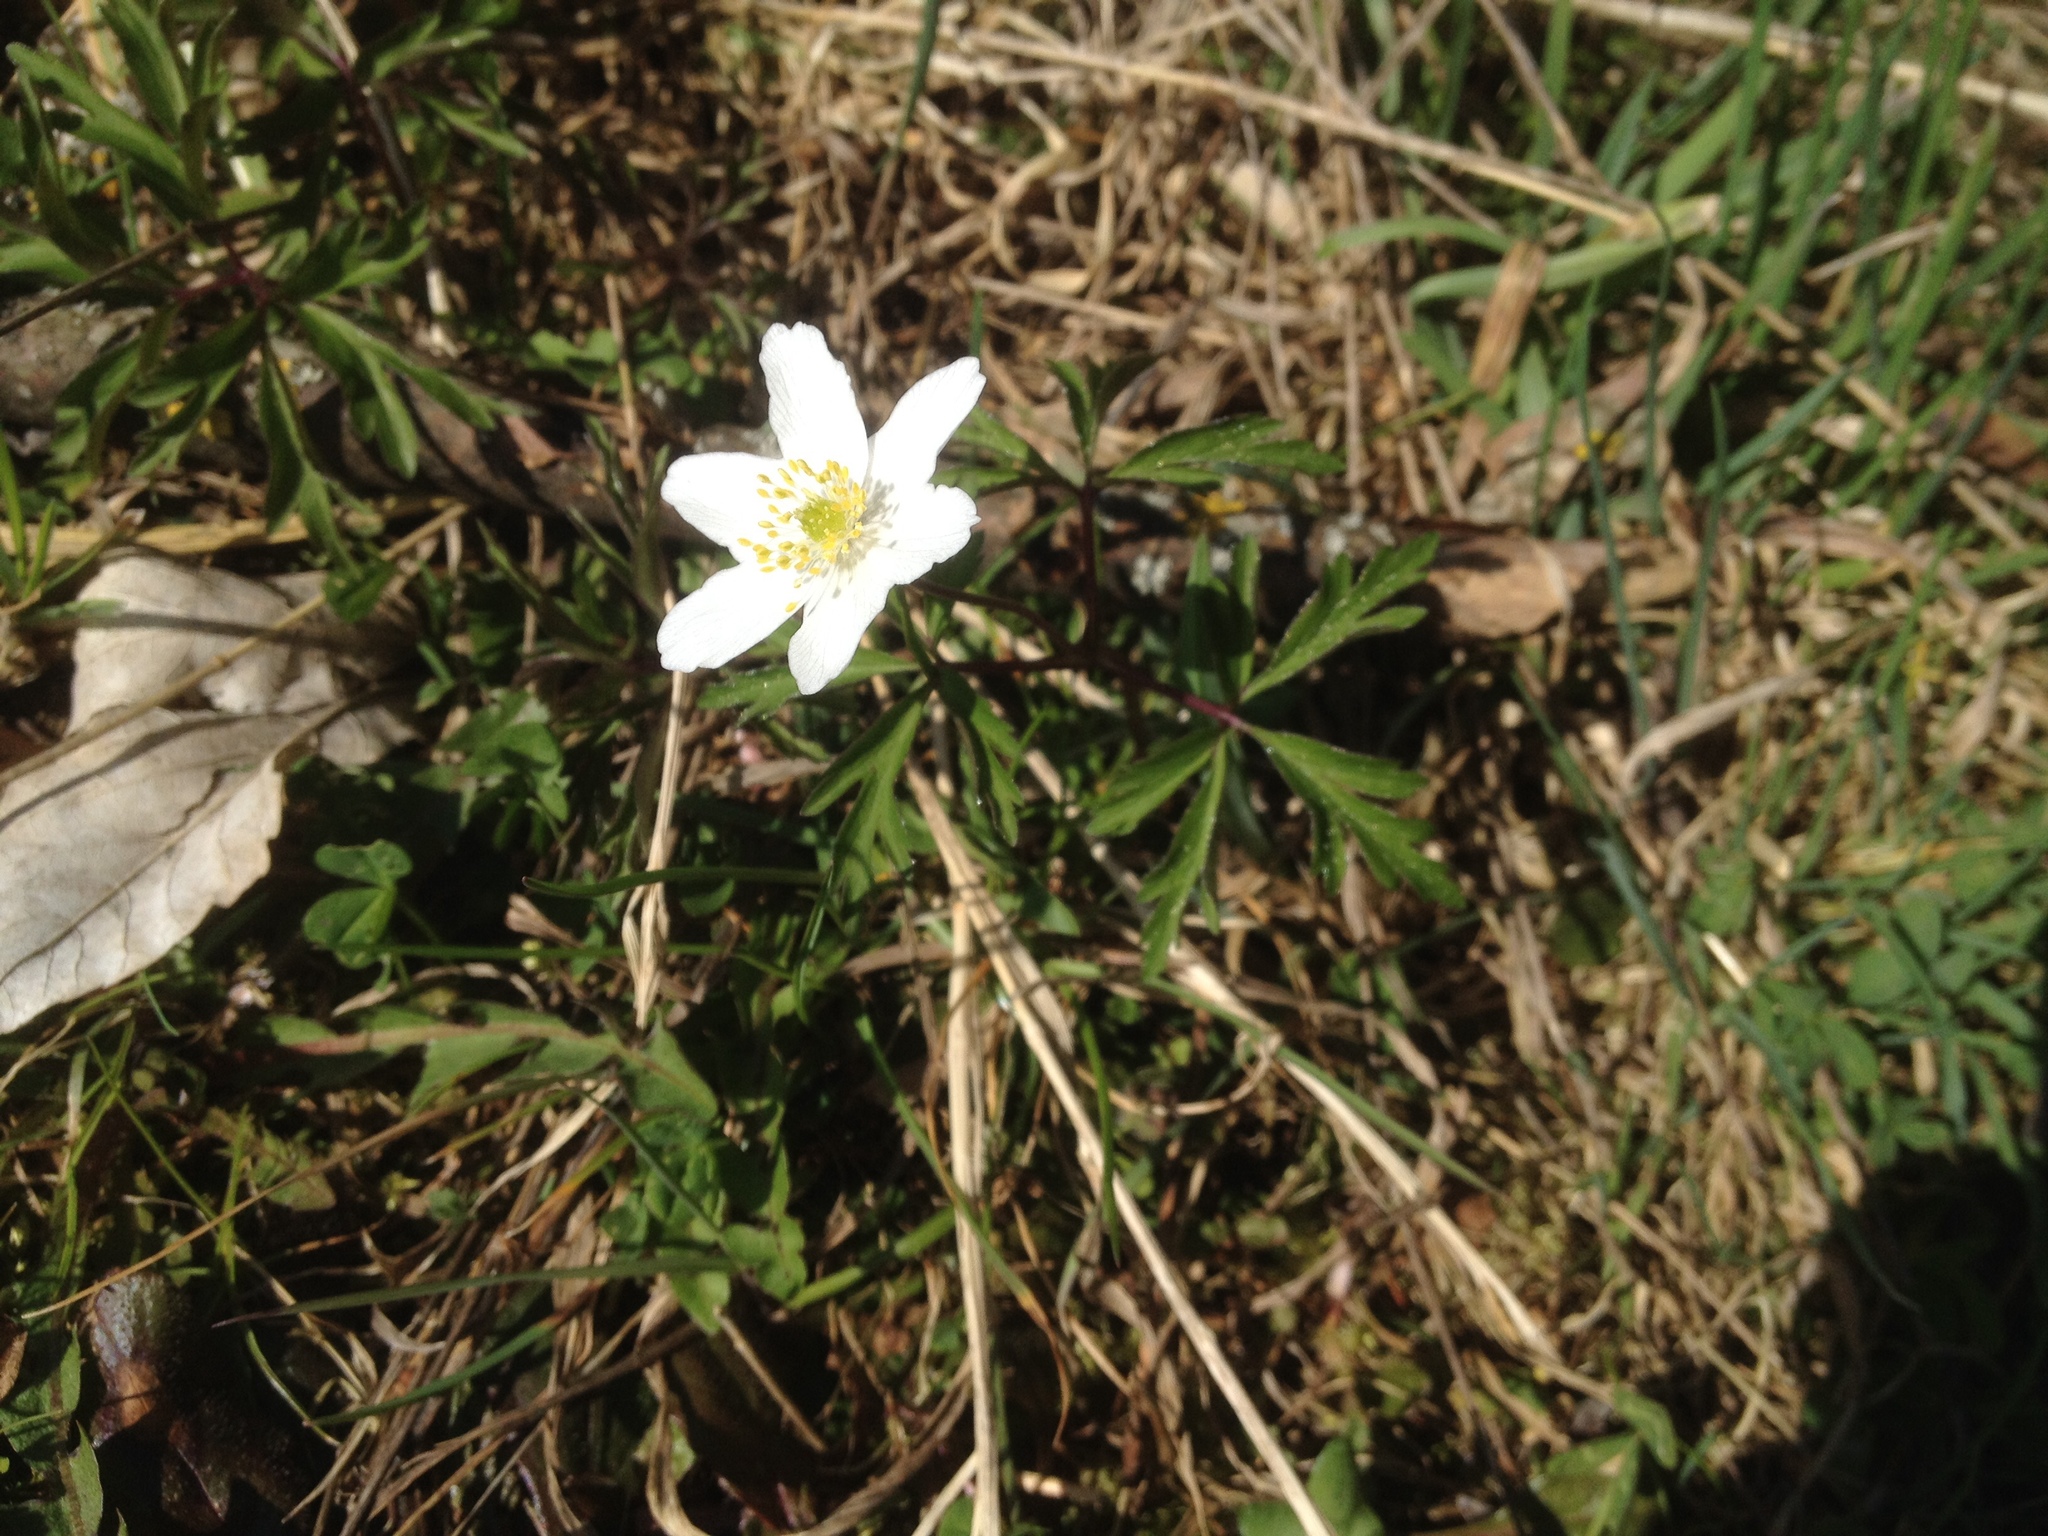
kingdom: Plantae
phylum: Tracheophyta
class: Magnoliopsida
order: Ranunculales
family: Ranunculaceae
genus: Anemone
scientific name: Anemone nemorosa
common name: Wood anemone
